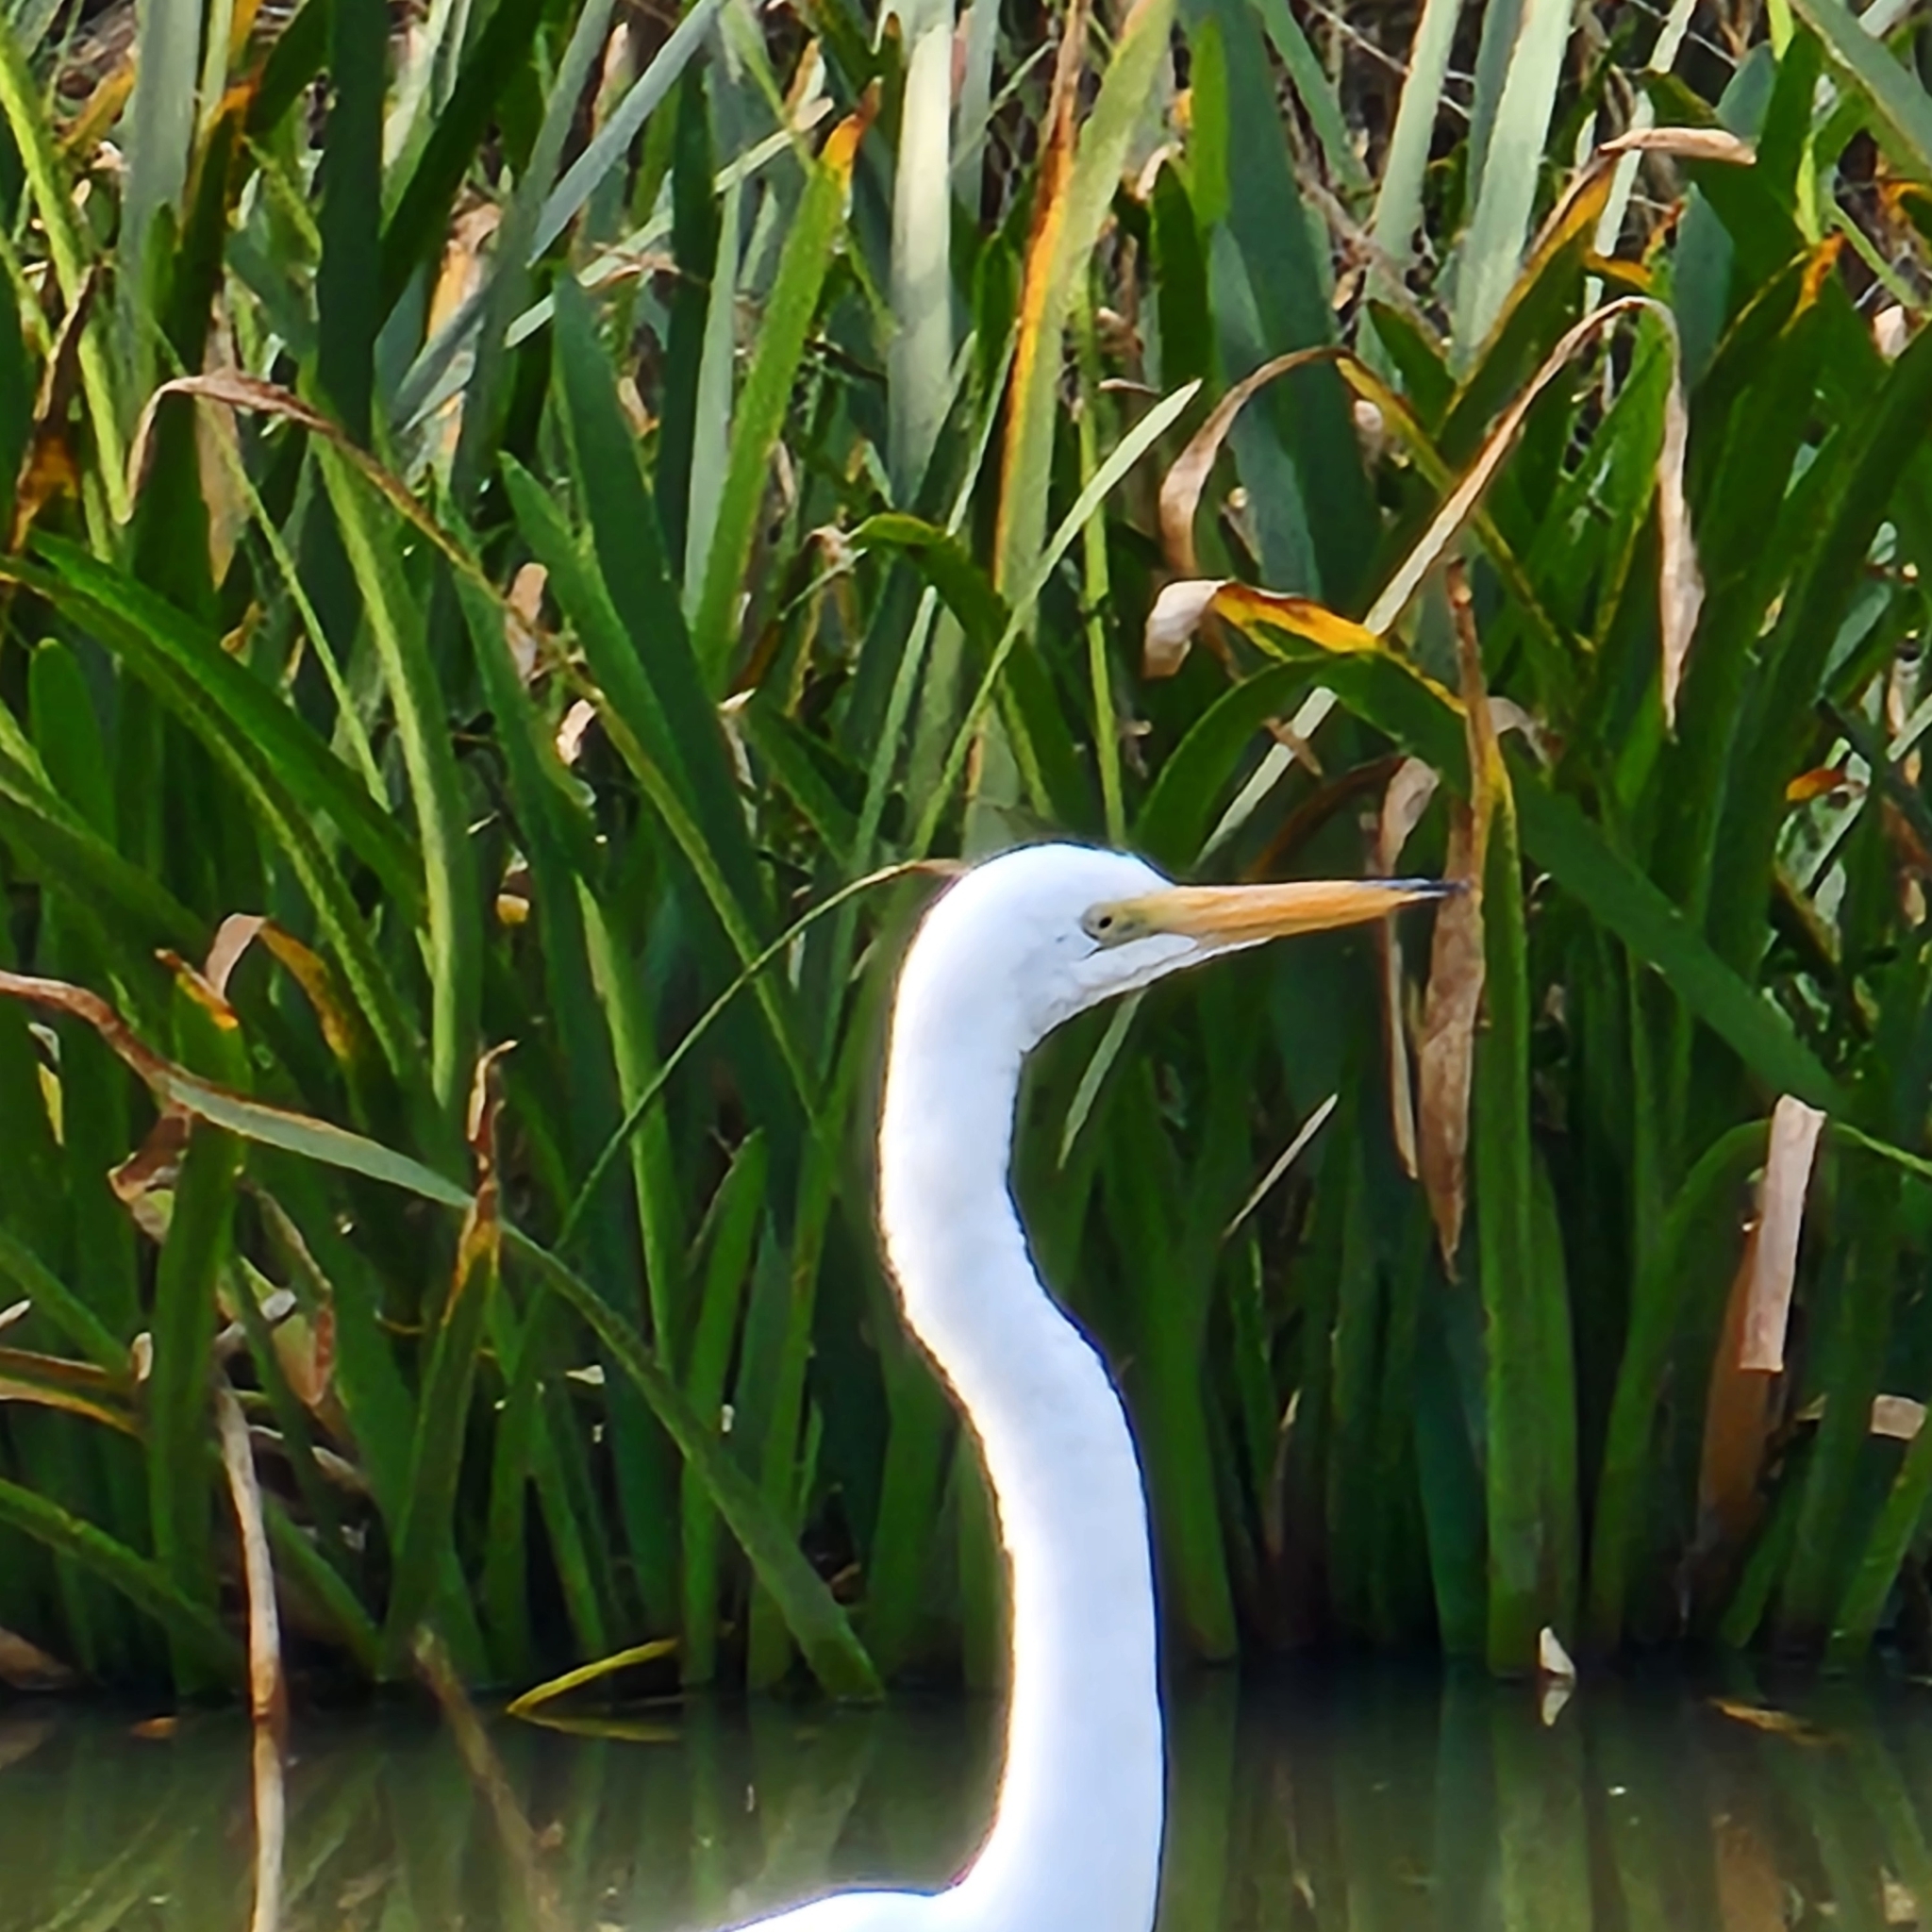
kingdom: Animalia
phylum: Chordata
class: Aves
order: Pelecaniformes
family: Ardeidae
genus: Ardea
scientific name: Ardea alba
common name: Great egret
